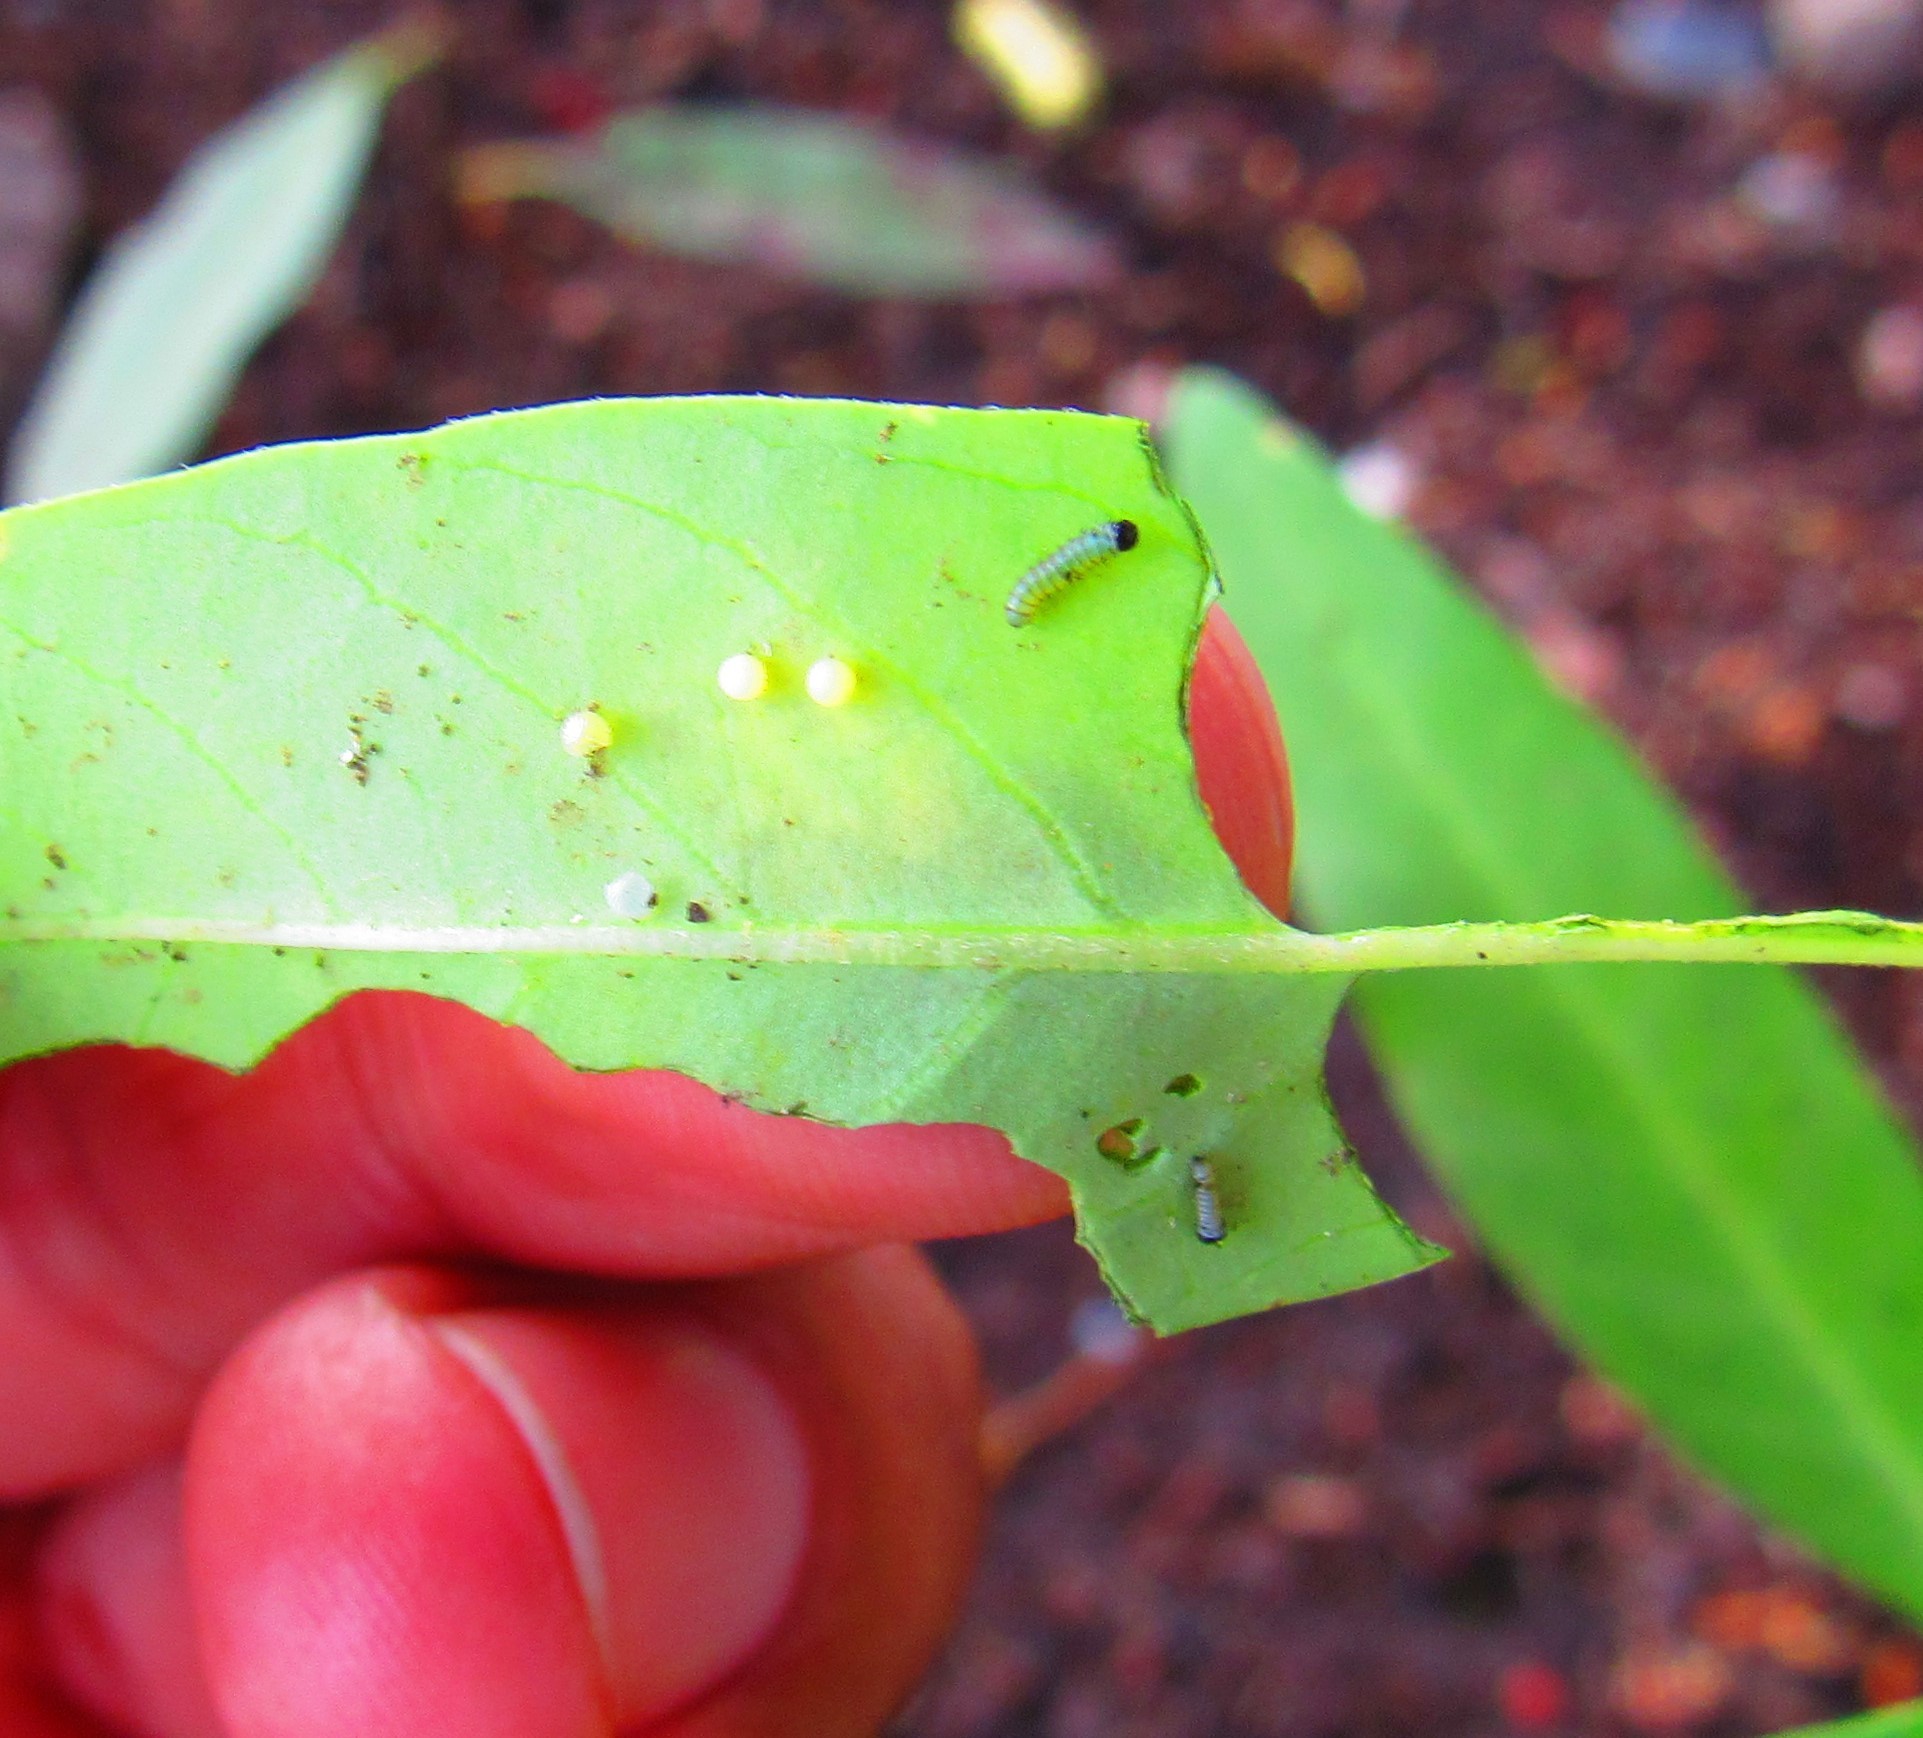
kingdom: Animalia
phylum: Arthropoda
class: Insecta
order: Lepidoptera
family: Nymphalidae
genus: Danaus
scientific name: Danaus plexippus
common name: Monarch
